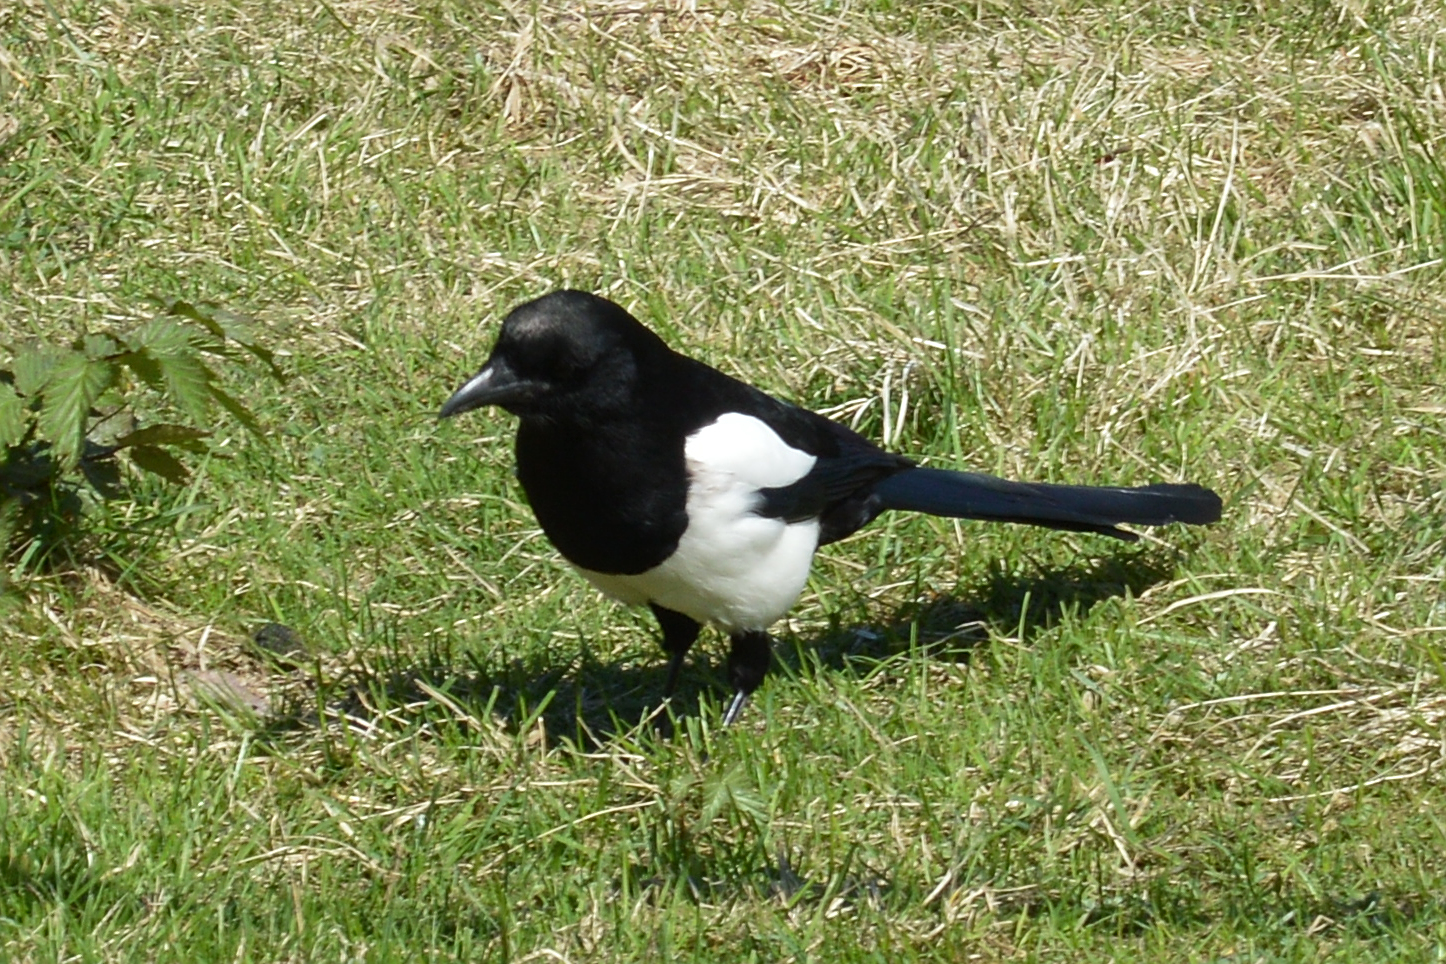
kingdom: Animalia
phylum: Chordata
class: Aves
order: Passeriformes
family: Corvidae
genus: Pica
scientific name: Pica pica
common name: Eurasian magpie
